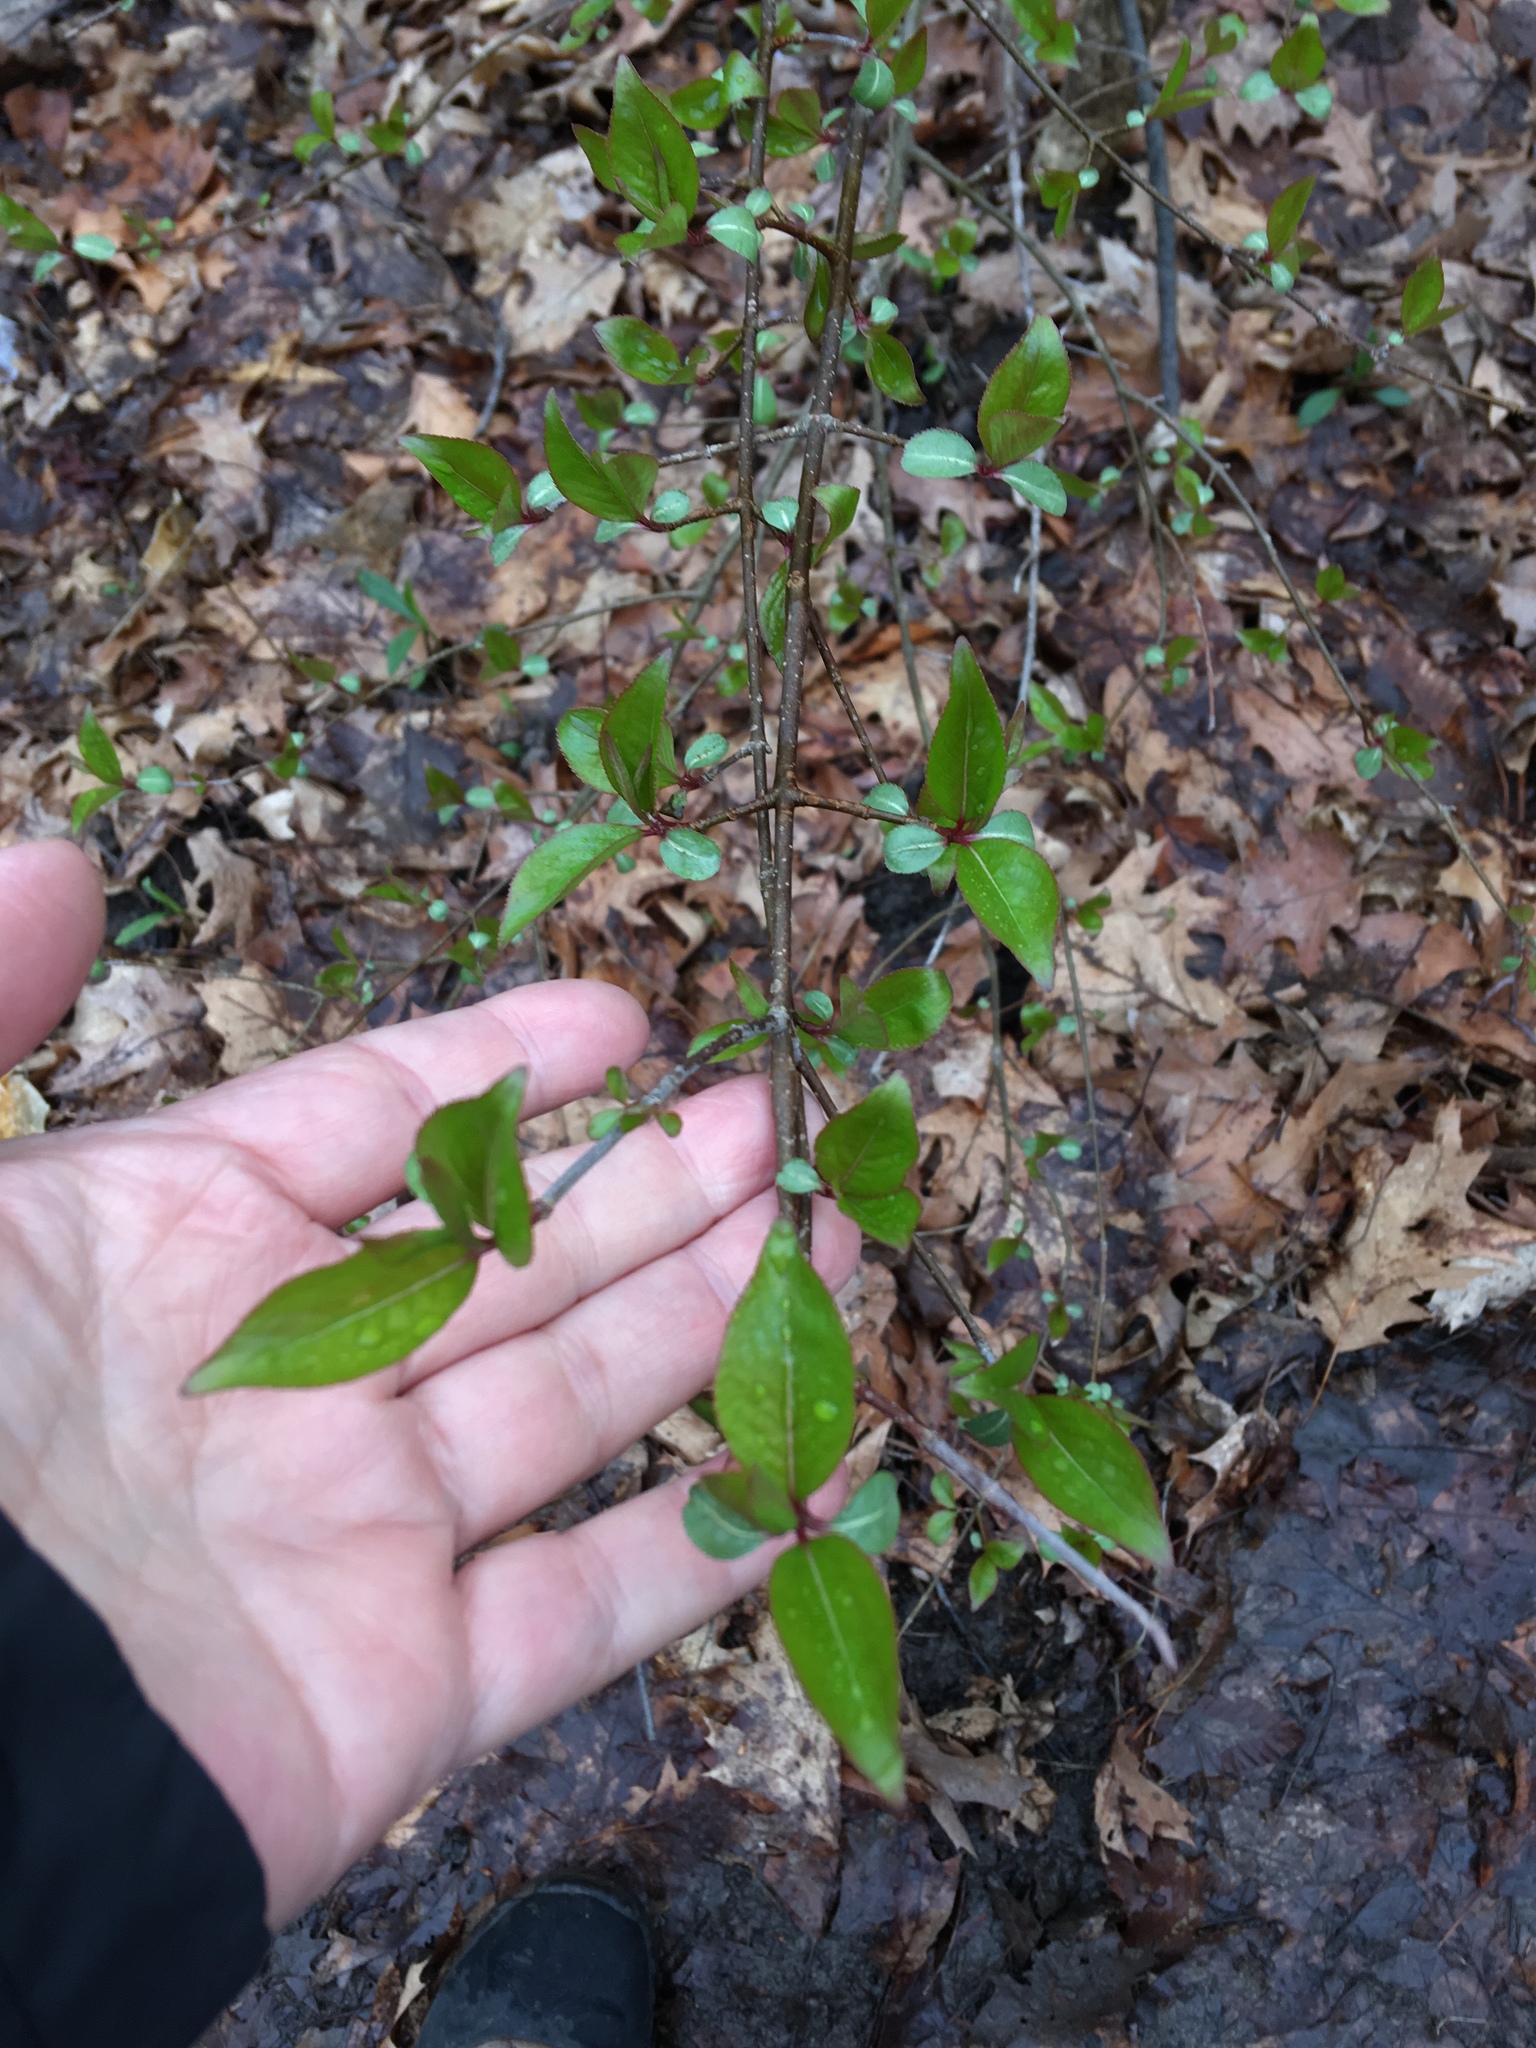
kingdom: Plantae
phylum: Tracheophyta
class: Magnoliopsida
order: Dipsacales
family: Viburnaceae
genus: Viburnum
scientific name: Viburnum prunifolium
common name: Black haw
